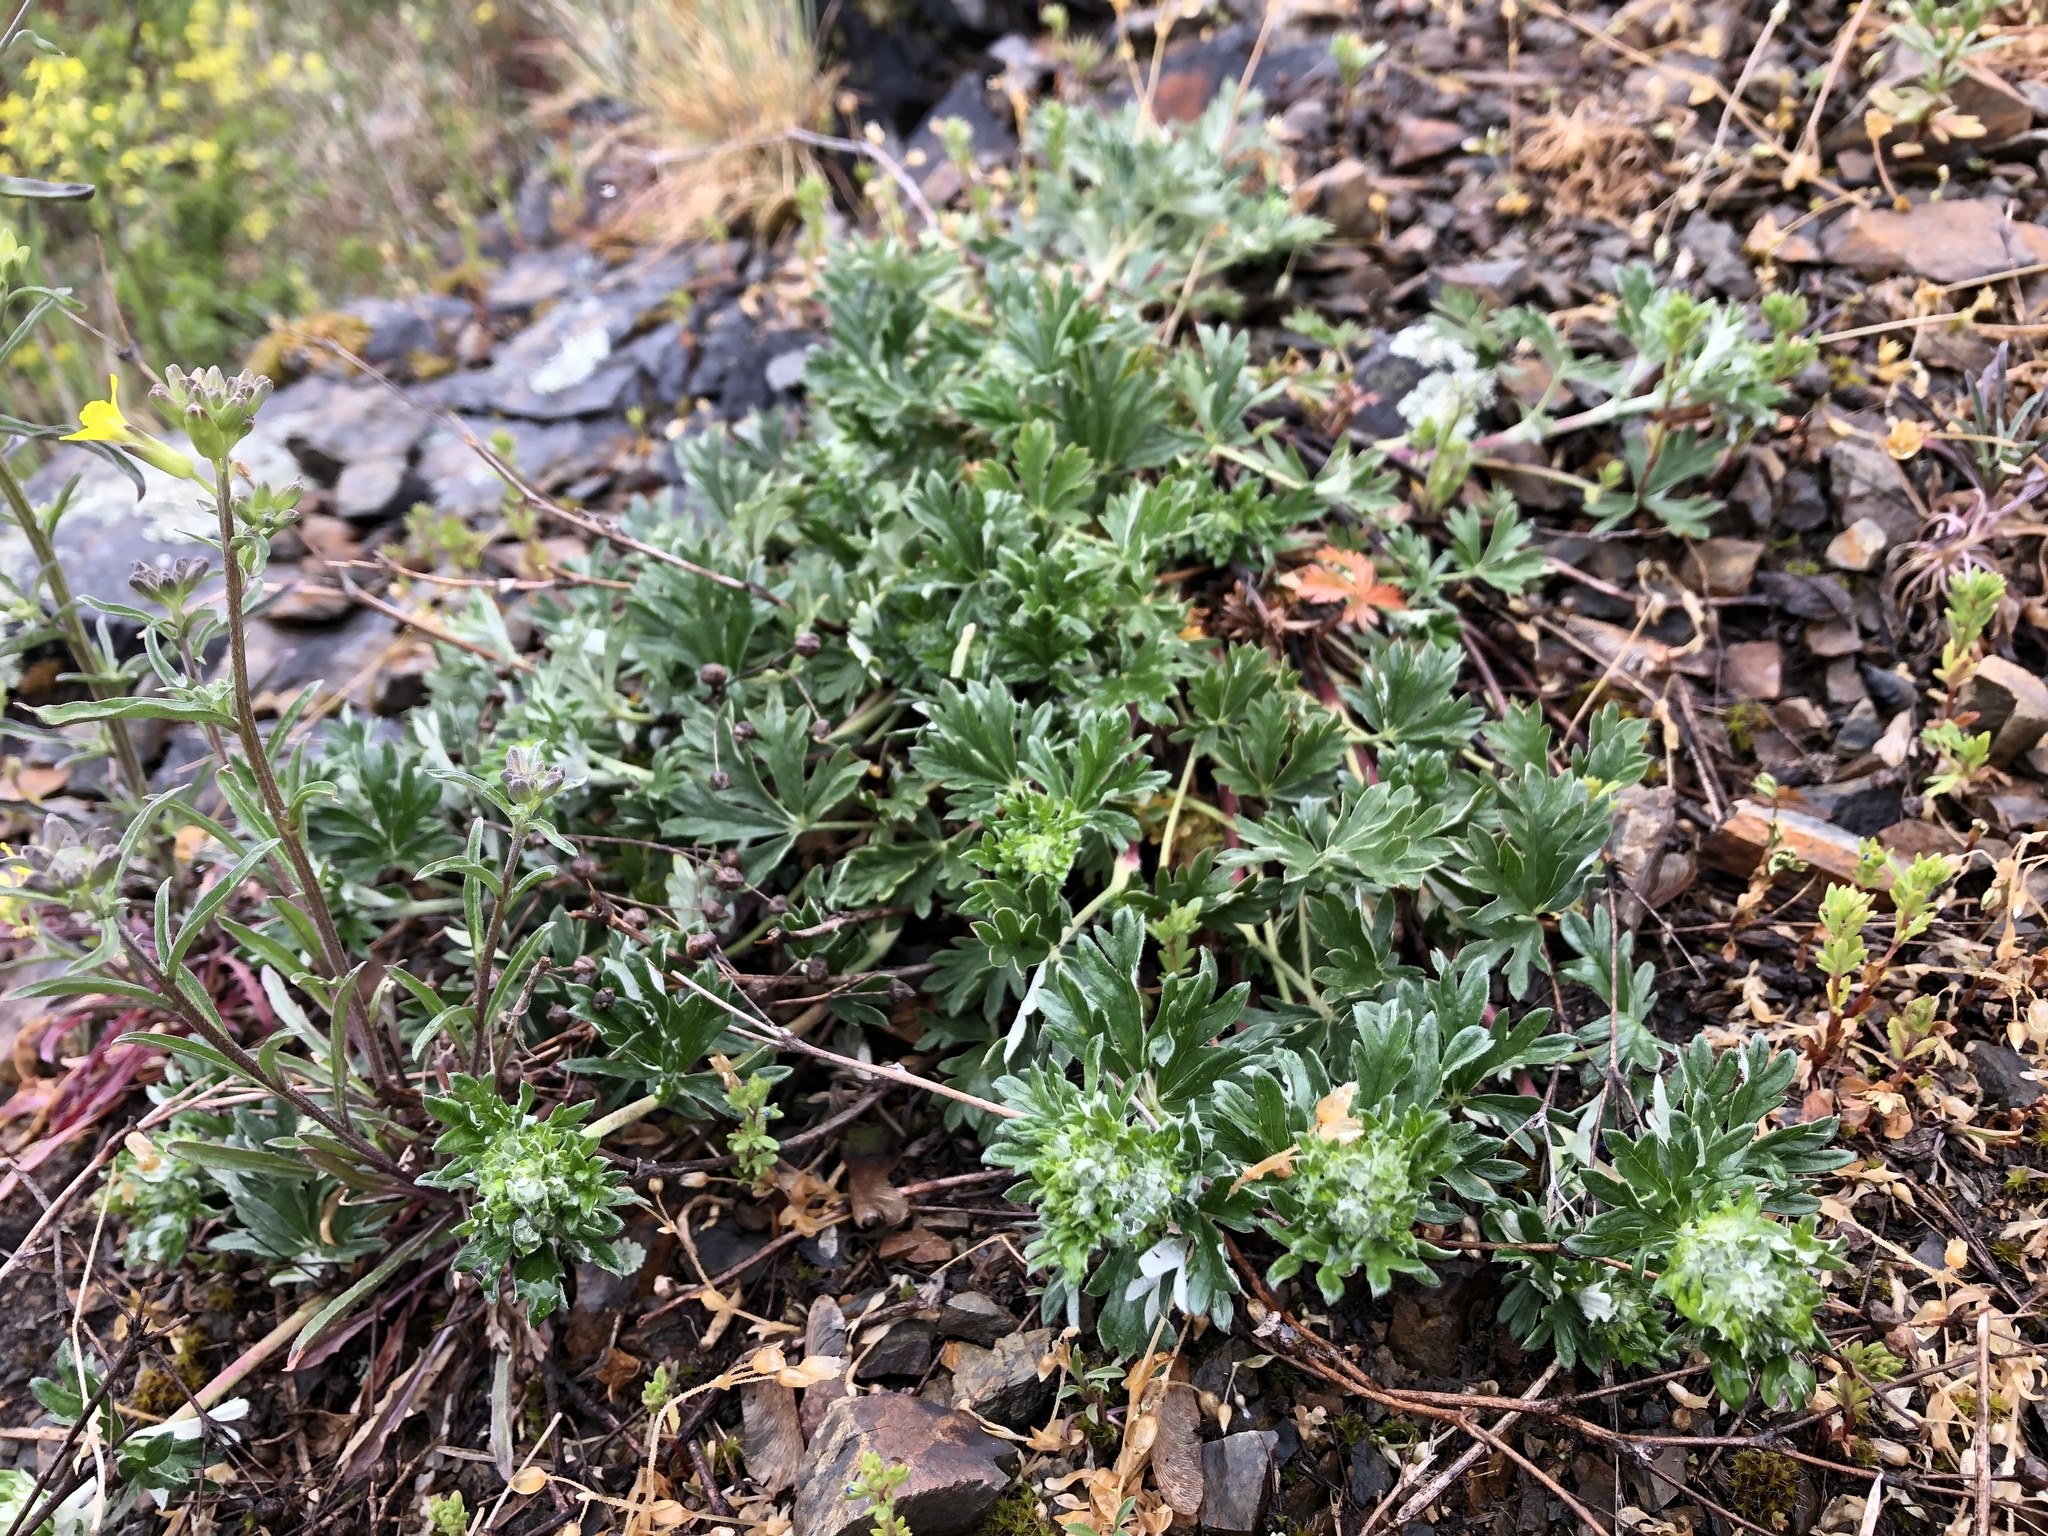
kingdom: Plantae
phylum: Tracheophyta
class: Magnoliopsida
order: Rosales
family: Rosaceae
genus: Potentilla
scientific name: Potentilla argentea
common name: Hoary cinquefoil
